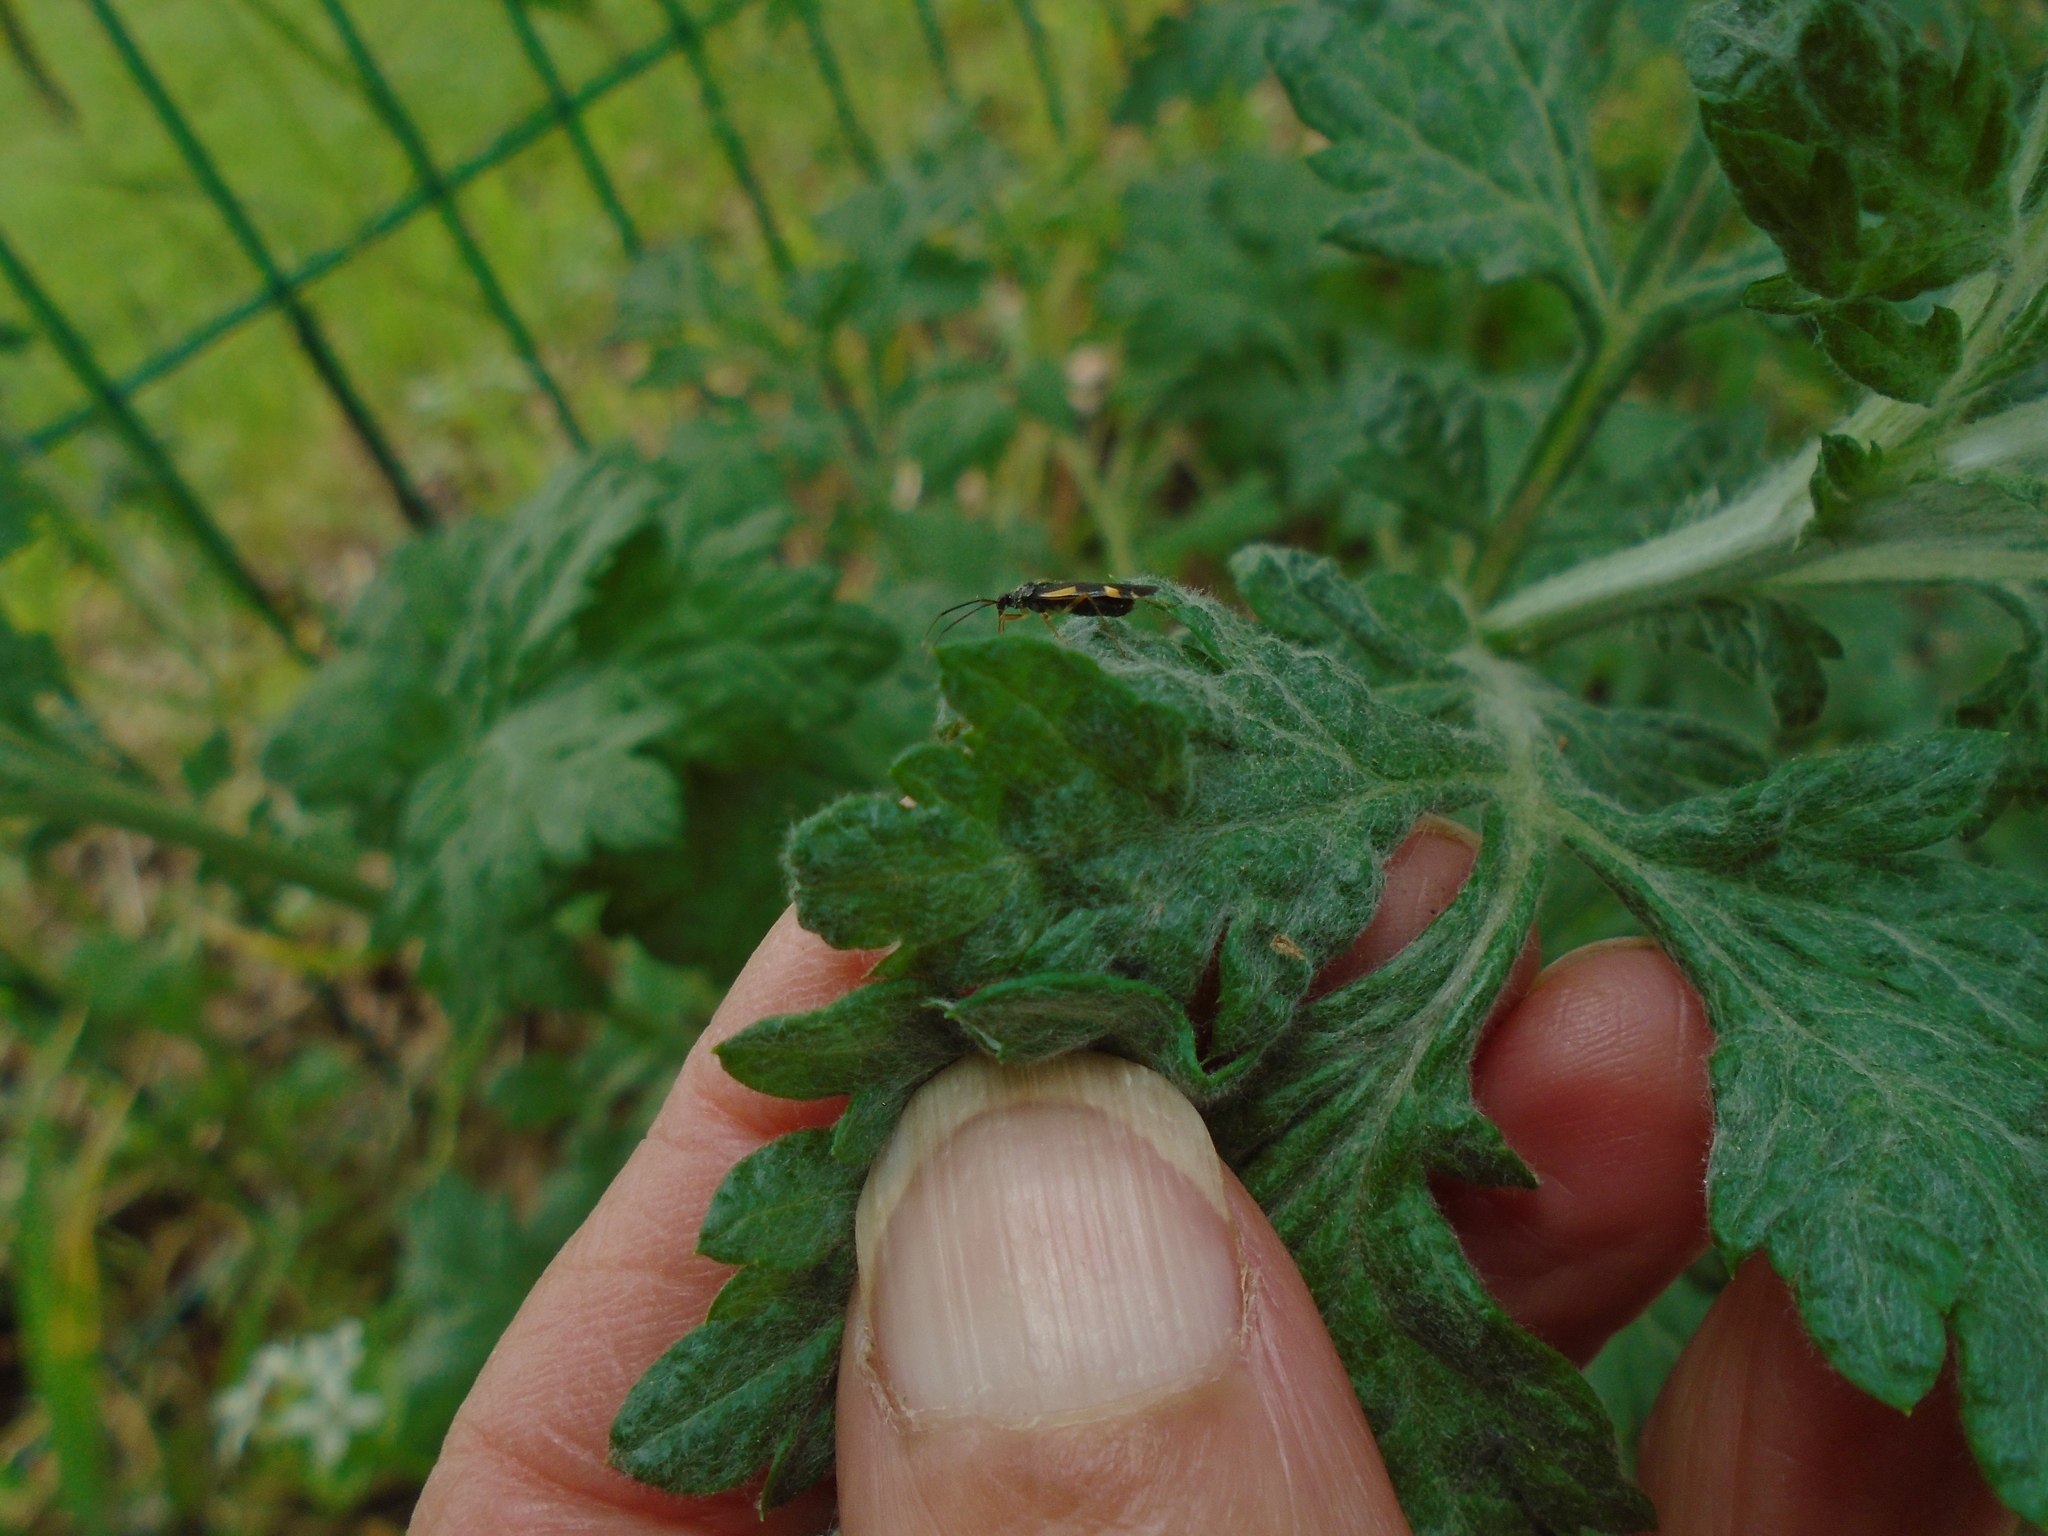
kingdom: Animalia
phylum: Arthropoda
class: Insecta
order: Hemiptera
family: Miridae
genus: Dryophilocoris
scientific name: Dryophilocoris flavoquadrimaculatus
